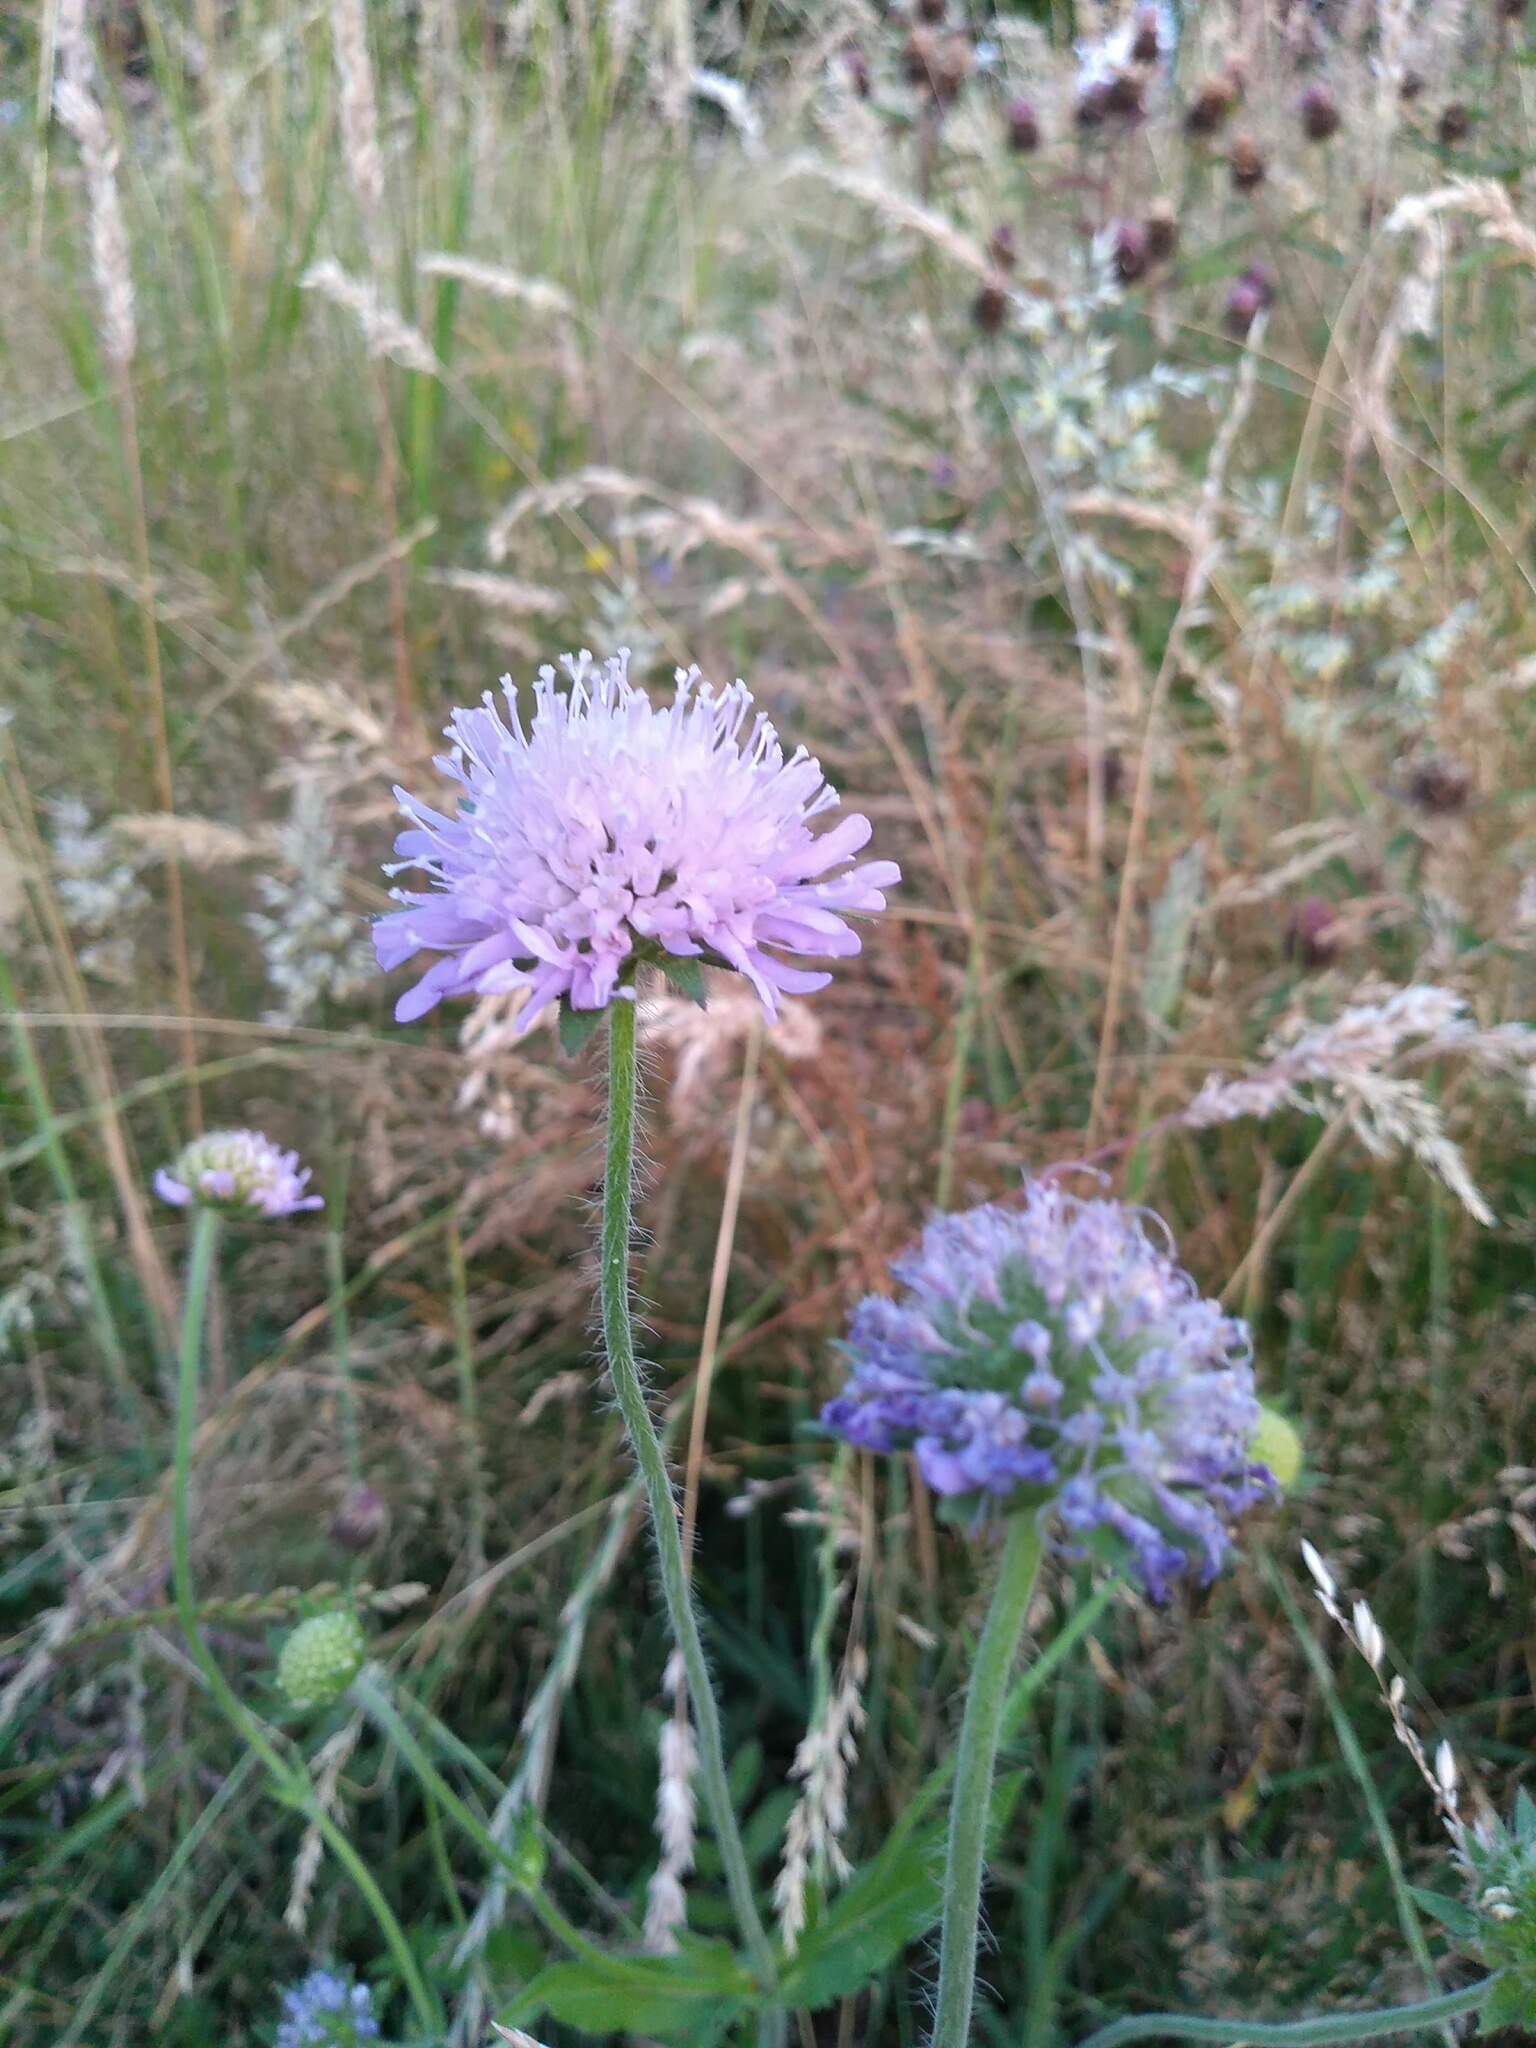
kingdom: Plantae
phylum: Tracheophyta
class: Magnoliopsida
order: Dipsacales
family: Caprifoliaceae
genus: Knautia
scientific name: Knautia arvensis
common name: Field scabiosa
